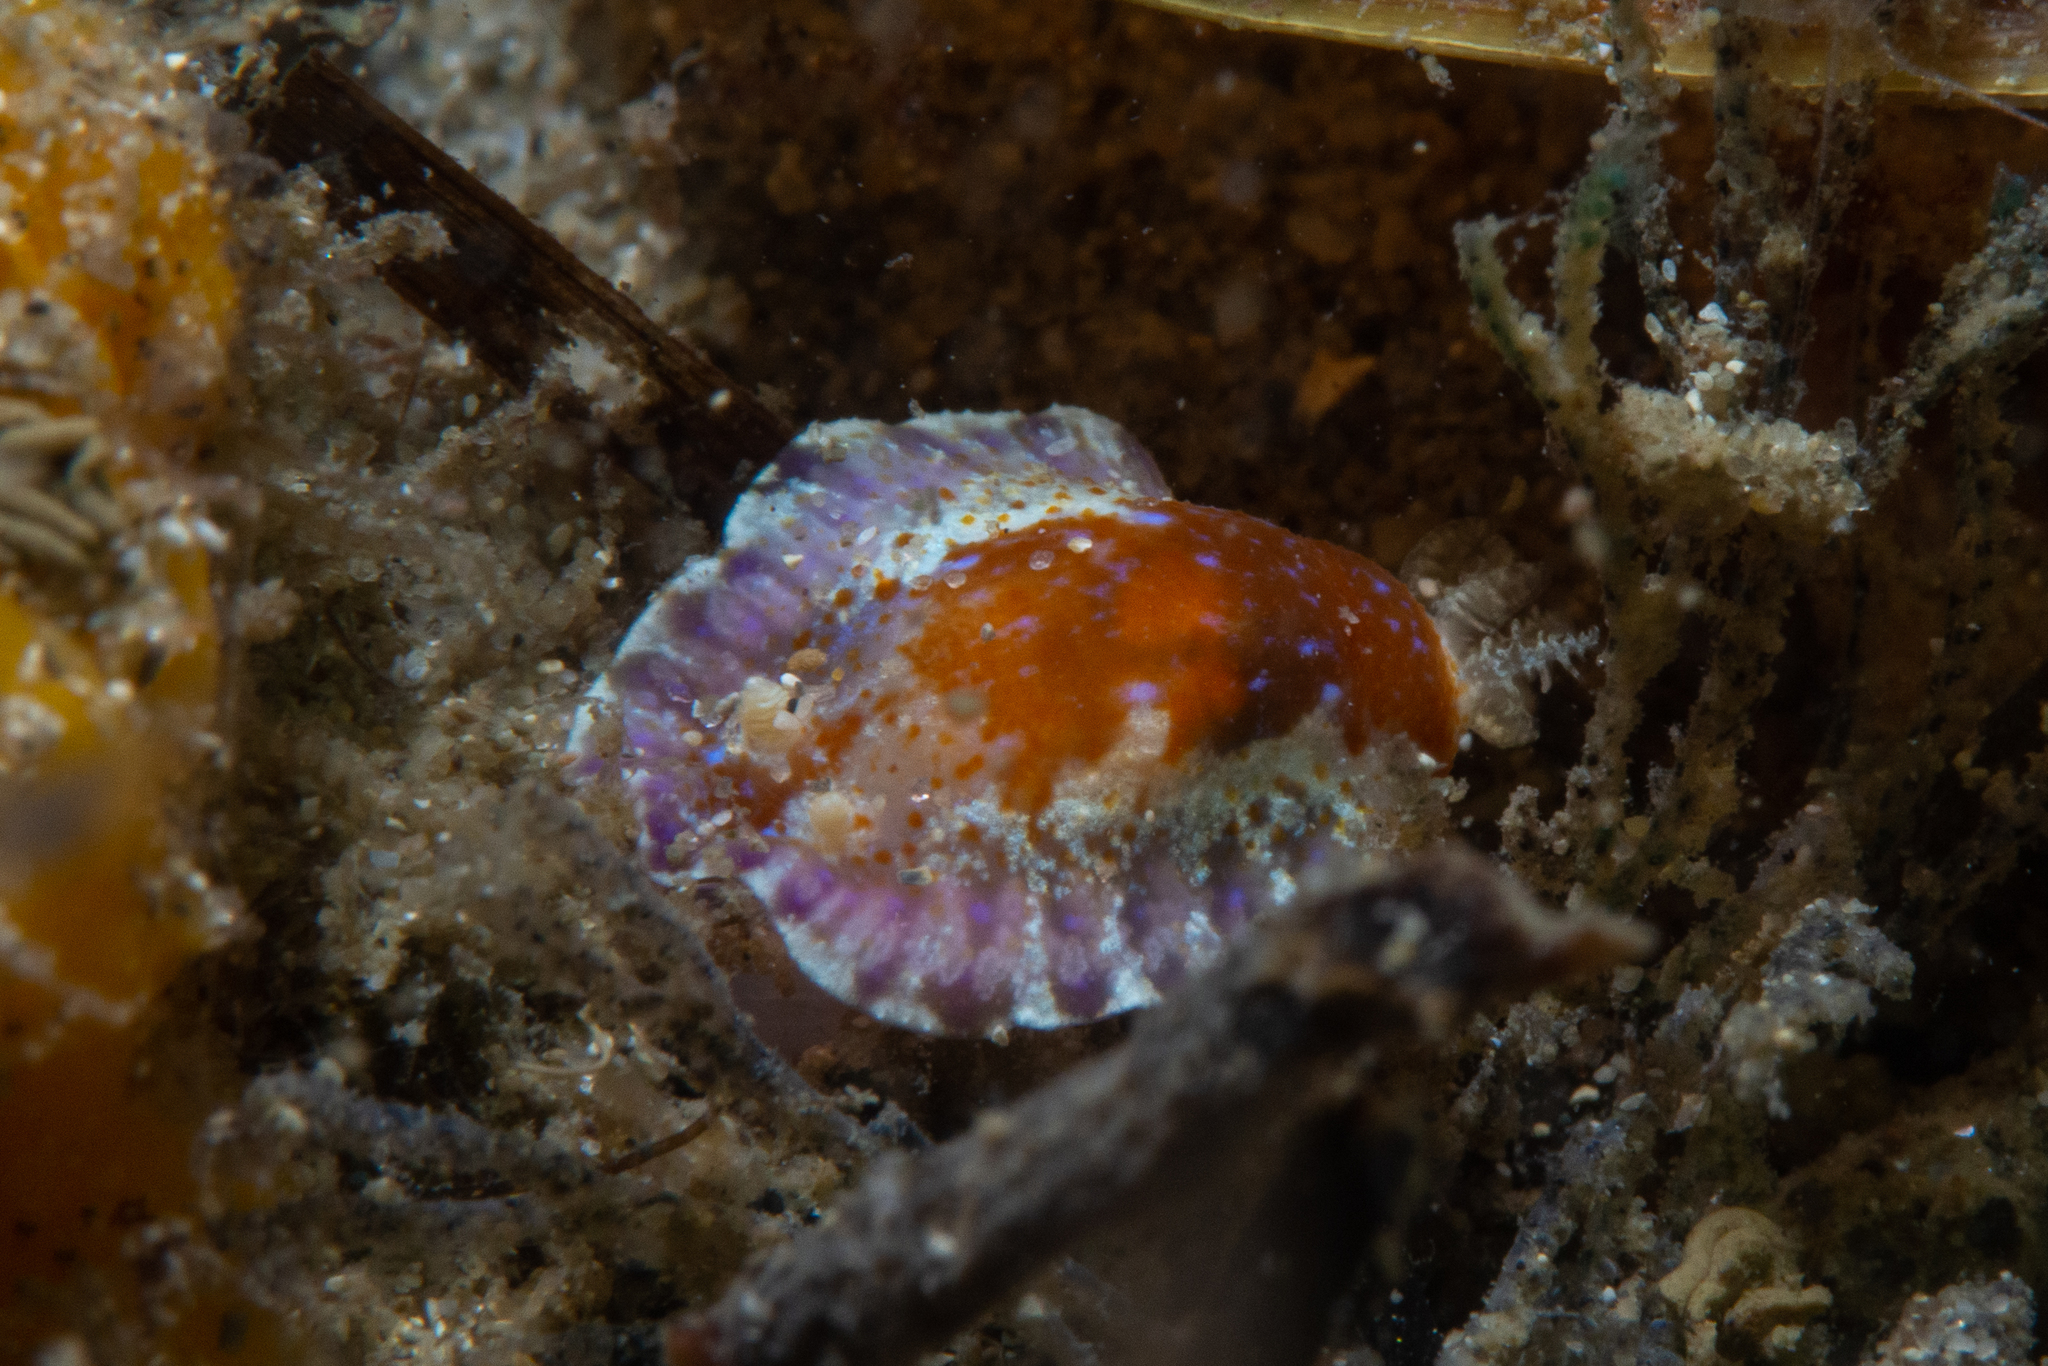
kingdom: Animalia
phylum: Mollusca
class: Gastropoda
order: Nudibranchia
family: Chromodorididae
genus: Chromodoris
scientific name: Chromodoris alternata
